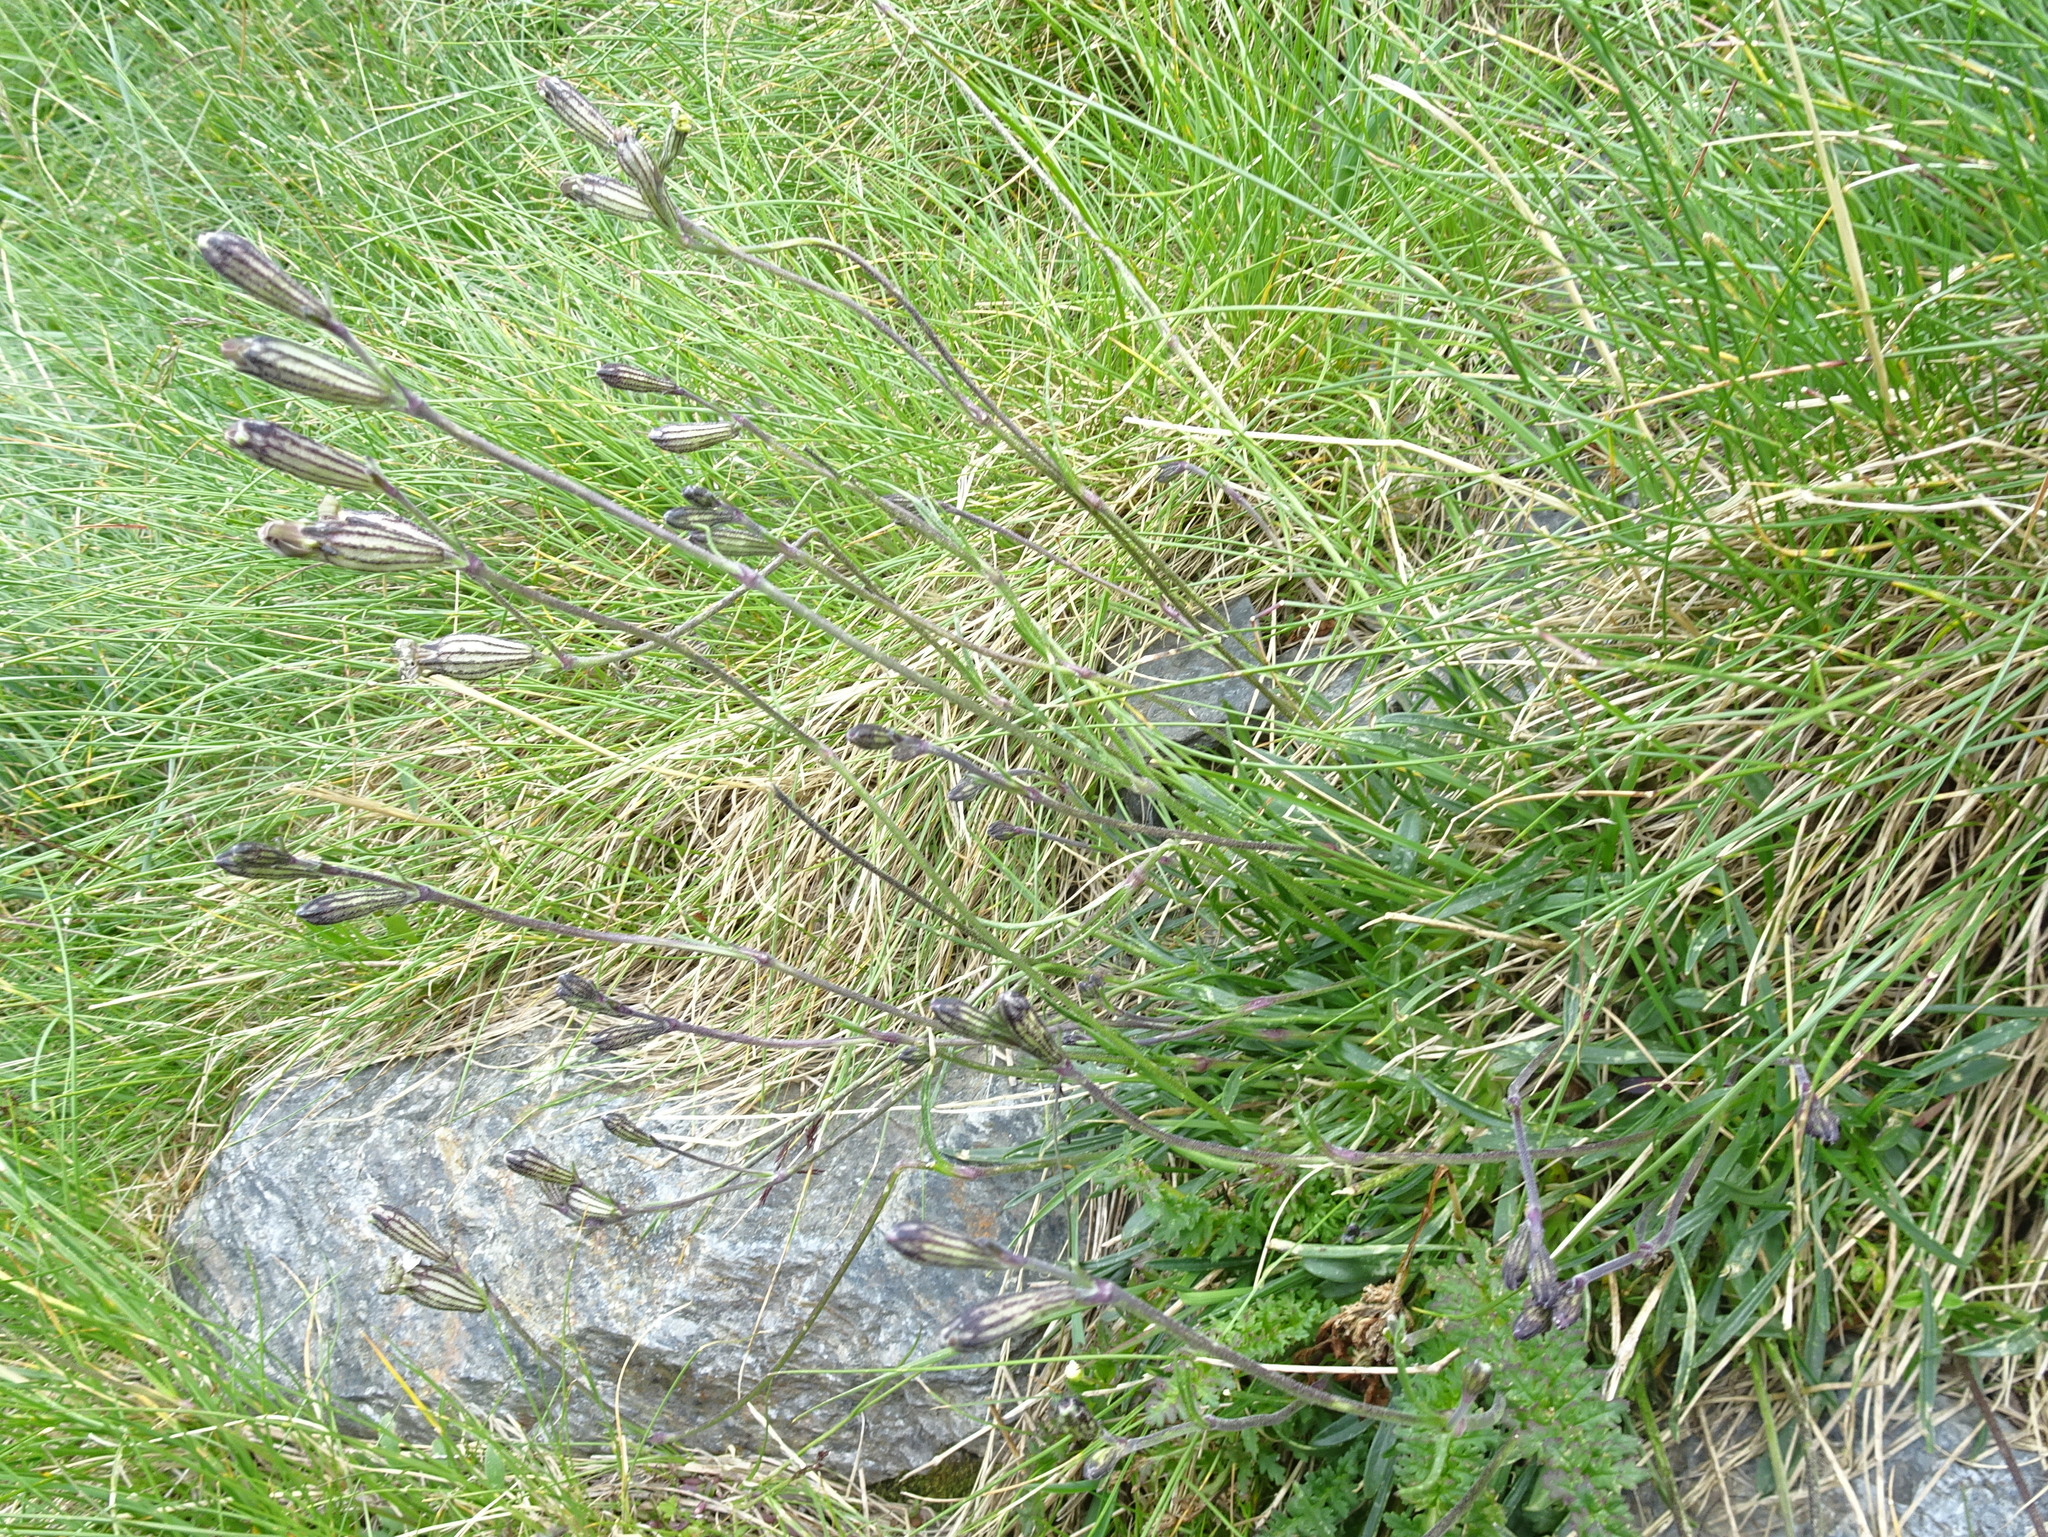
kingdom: Plantae
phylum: Tracheophyta
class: Magnoliopsida
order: Caryophyllales
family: Caryophyllaceae
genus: Silene
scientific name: Silene ciliata
